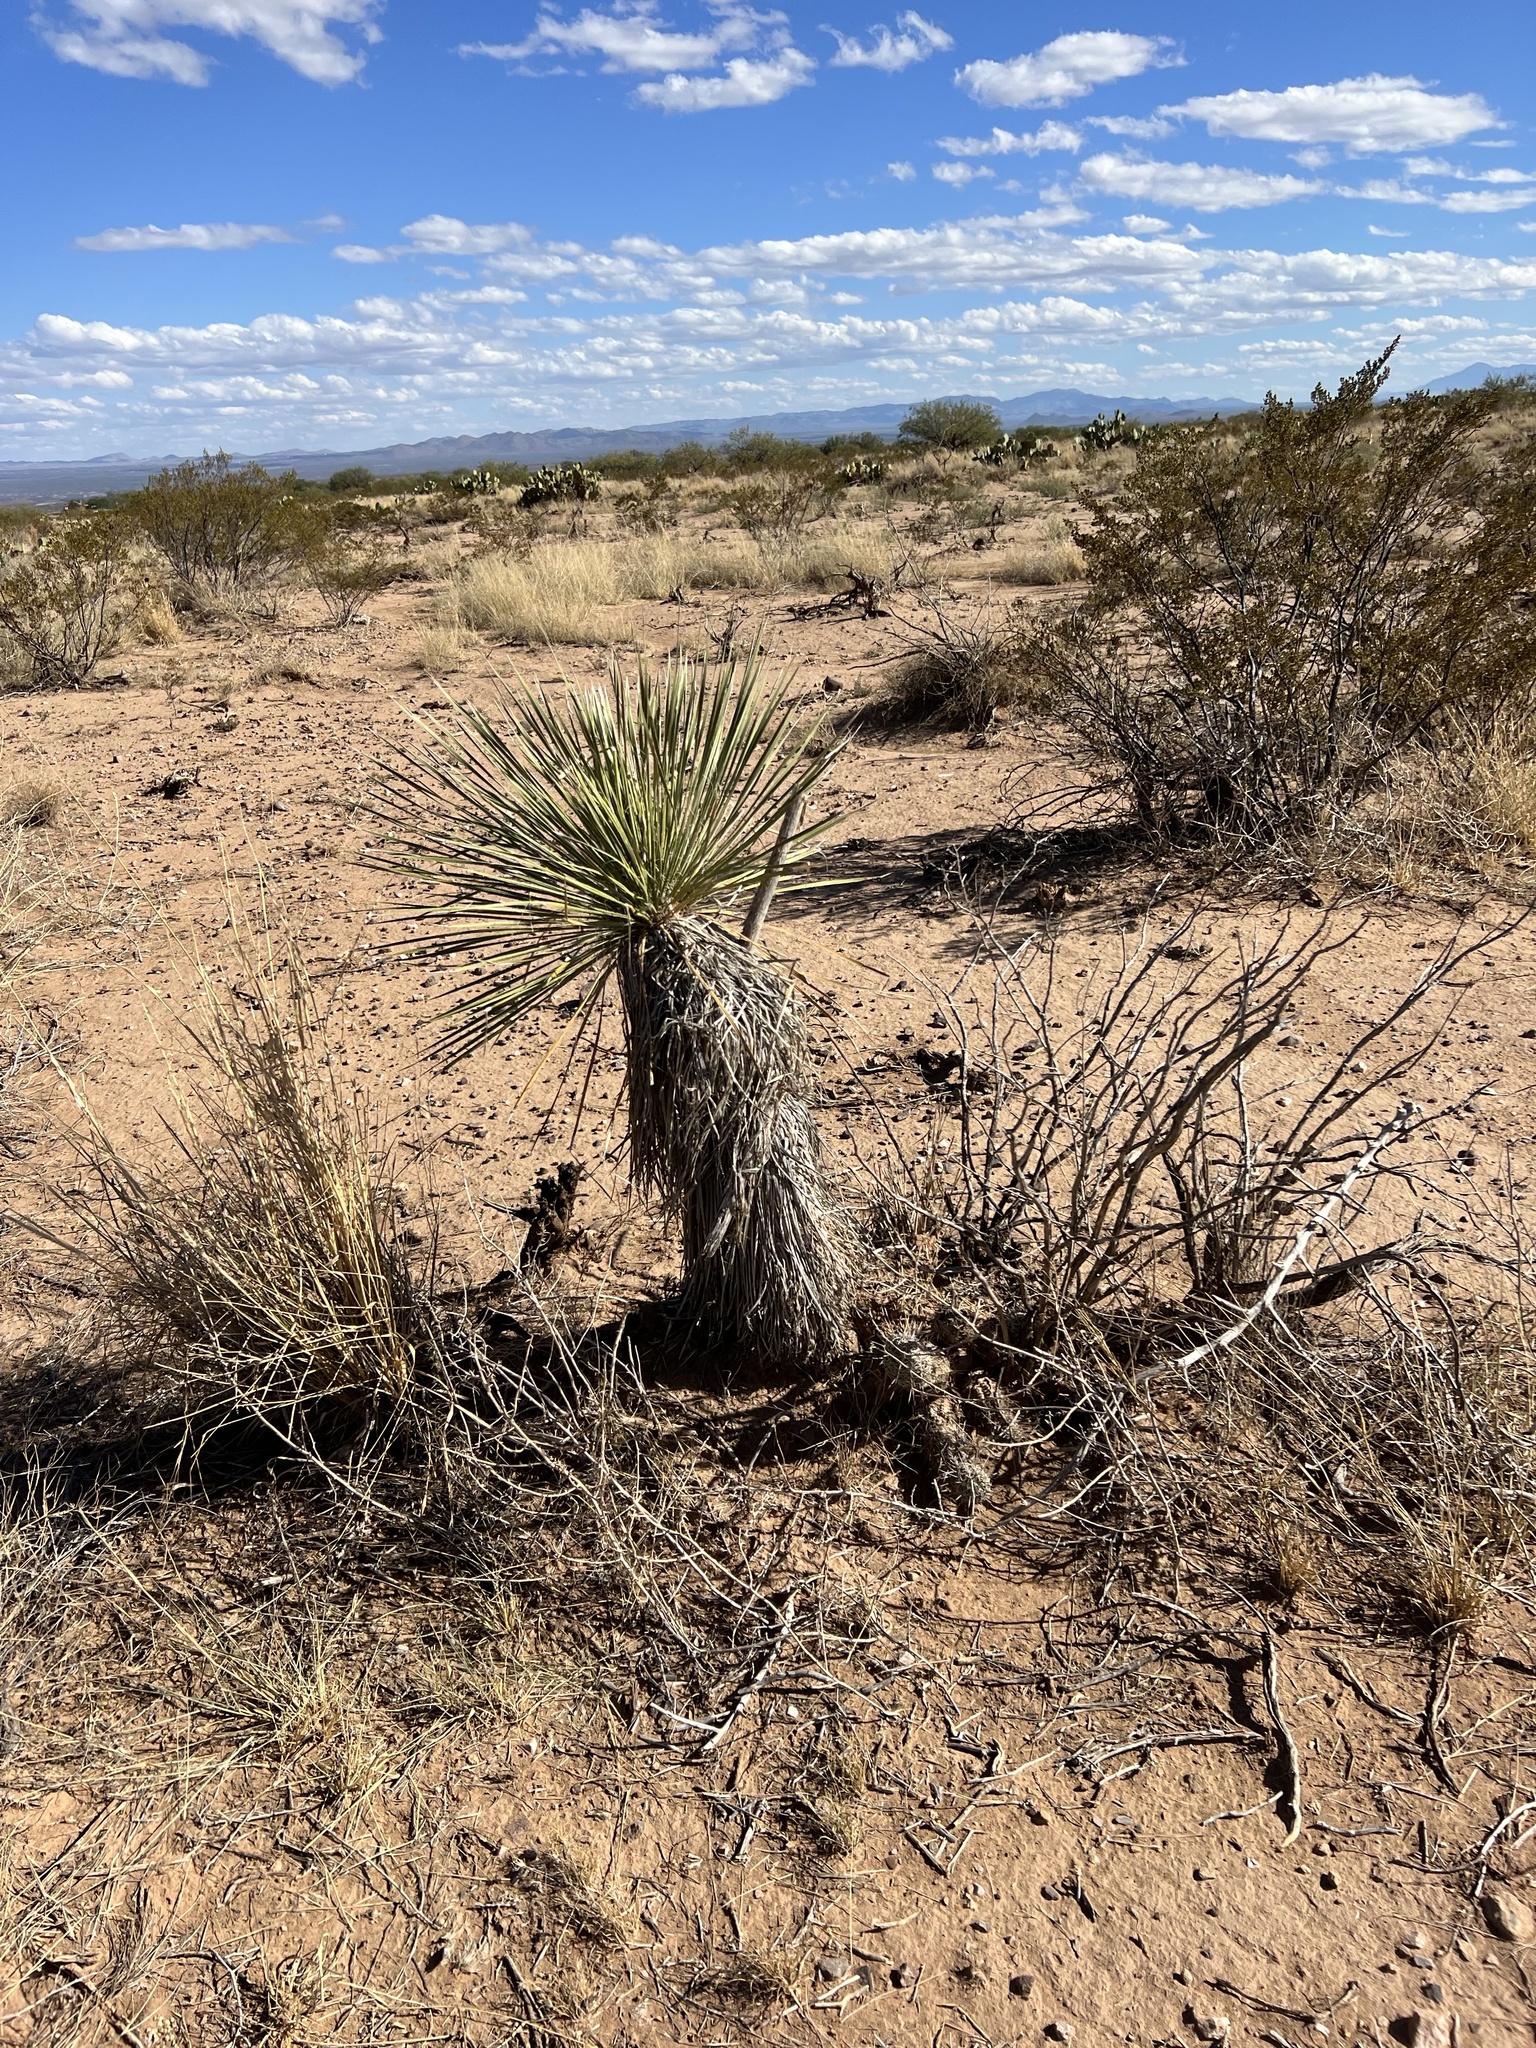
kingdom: Plantae
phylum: Tracheophyta
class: Liliopsida
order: Asparagales
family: Asparagaceae
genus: Yucca
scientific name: Yucca elata
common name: Palmella
